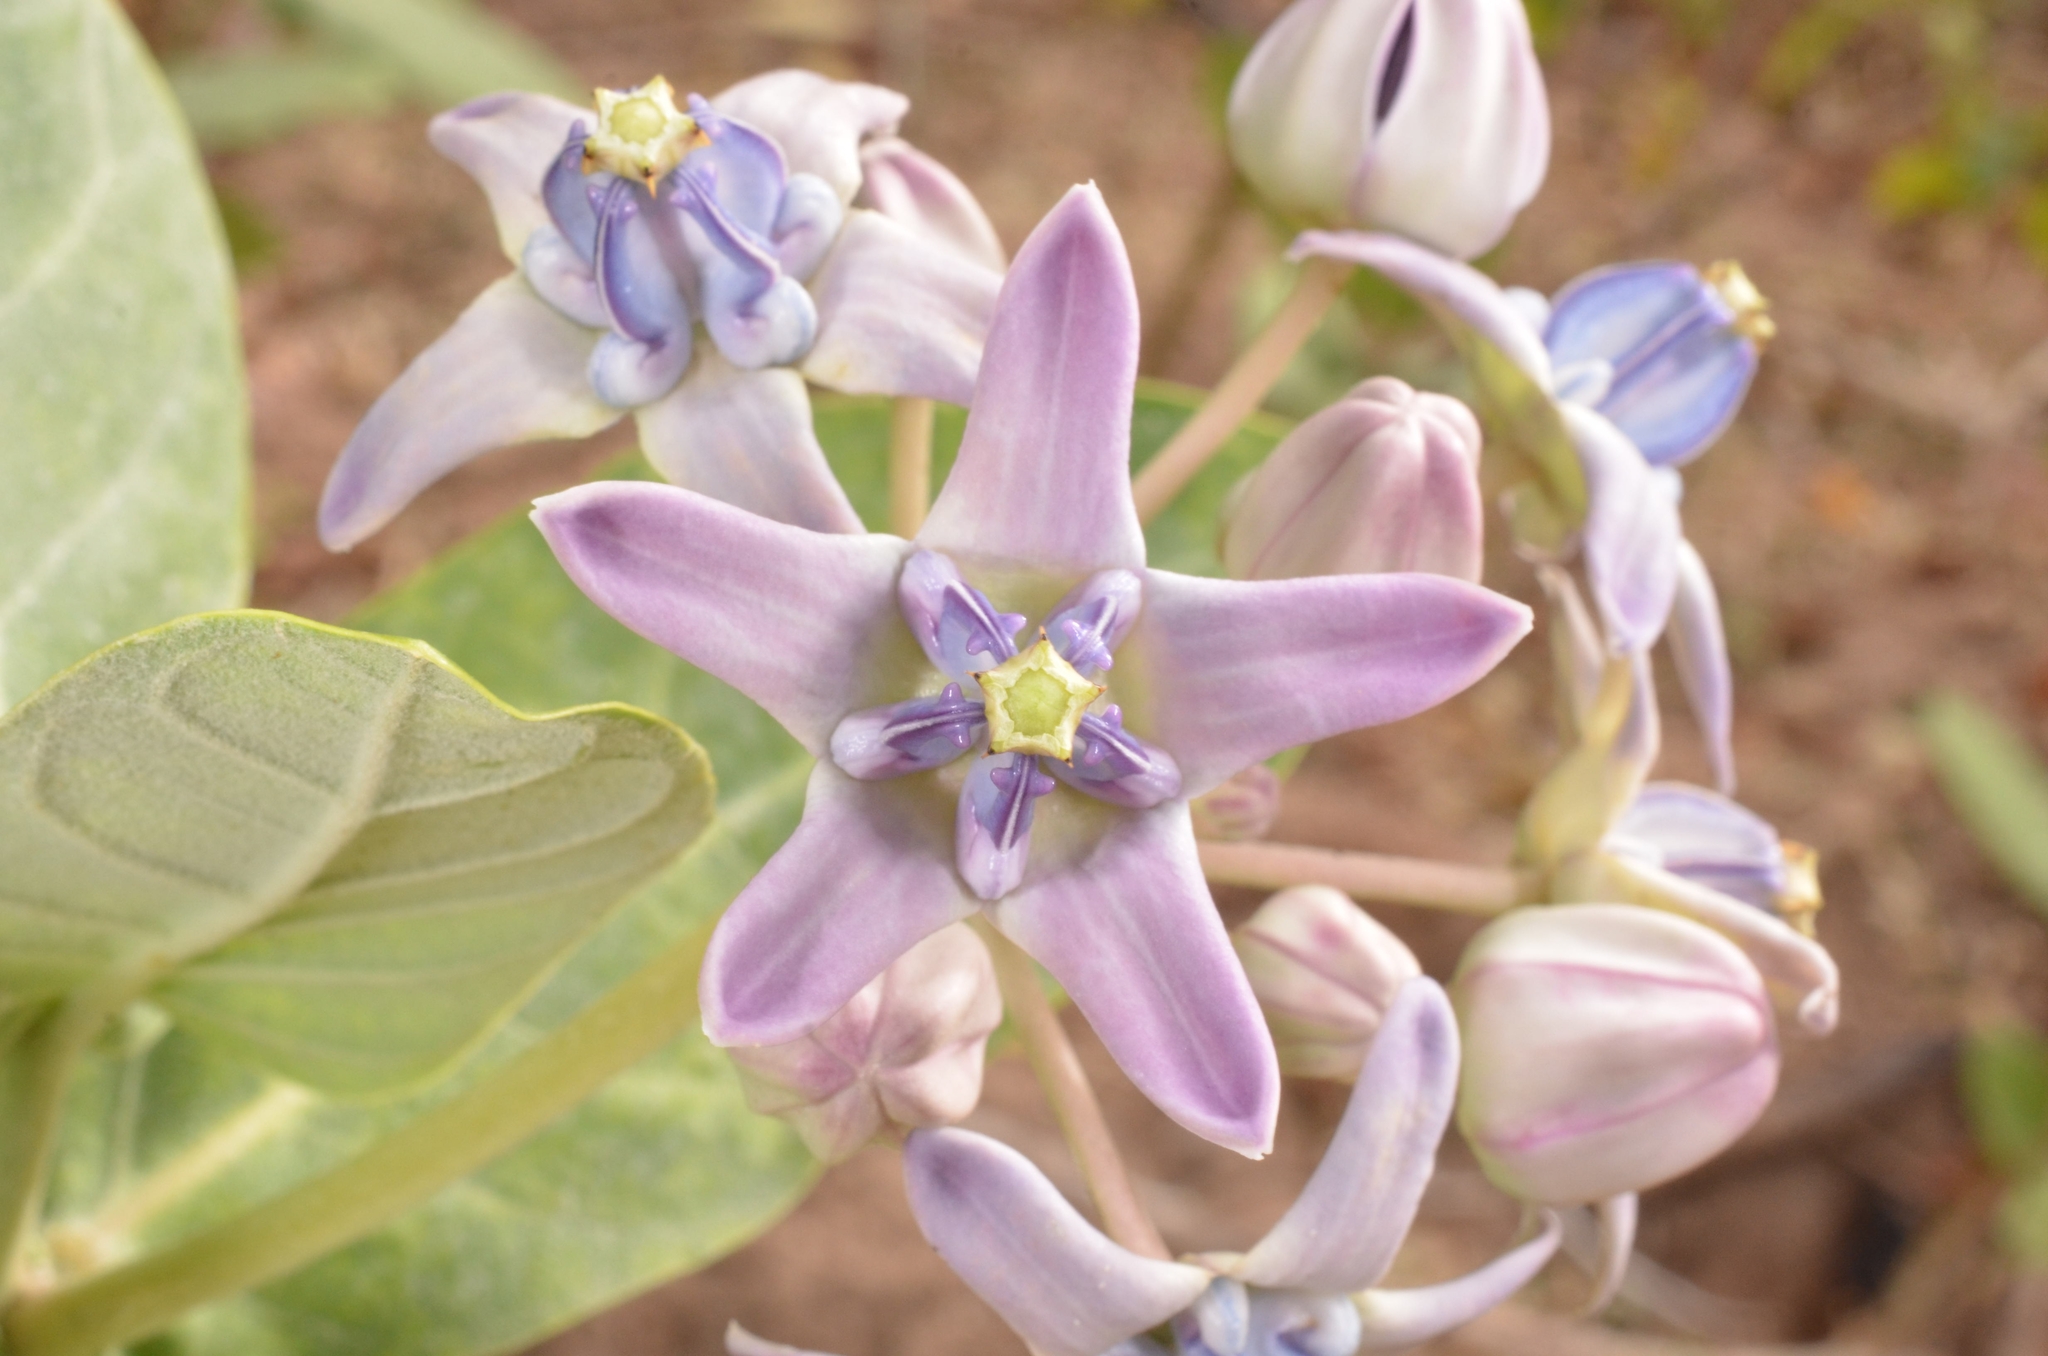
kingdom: Plantae
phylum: Tracheophyta
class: Magnoliopsida
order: Gentianales
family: Apocynaceae
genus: Calotropis
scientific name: Calotropis gigantea
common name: Crown flower
